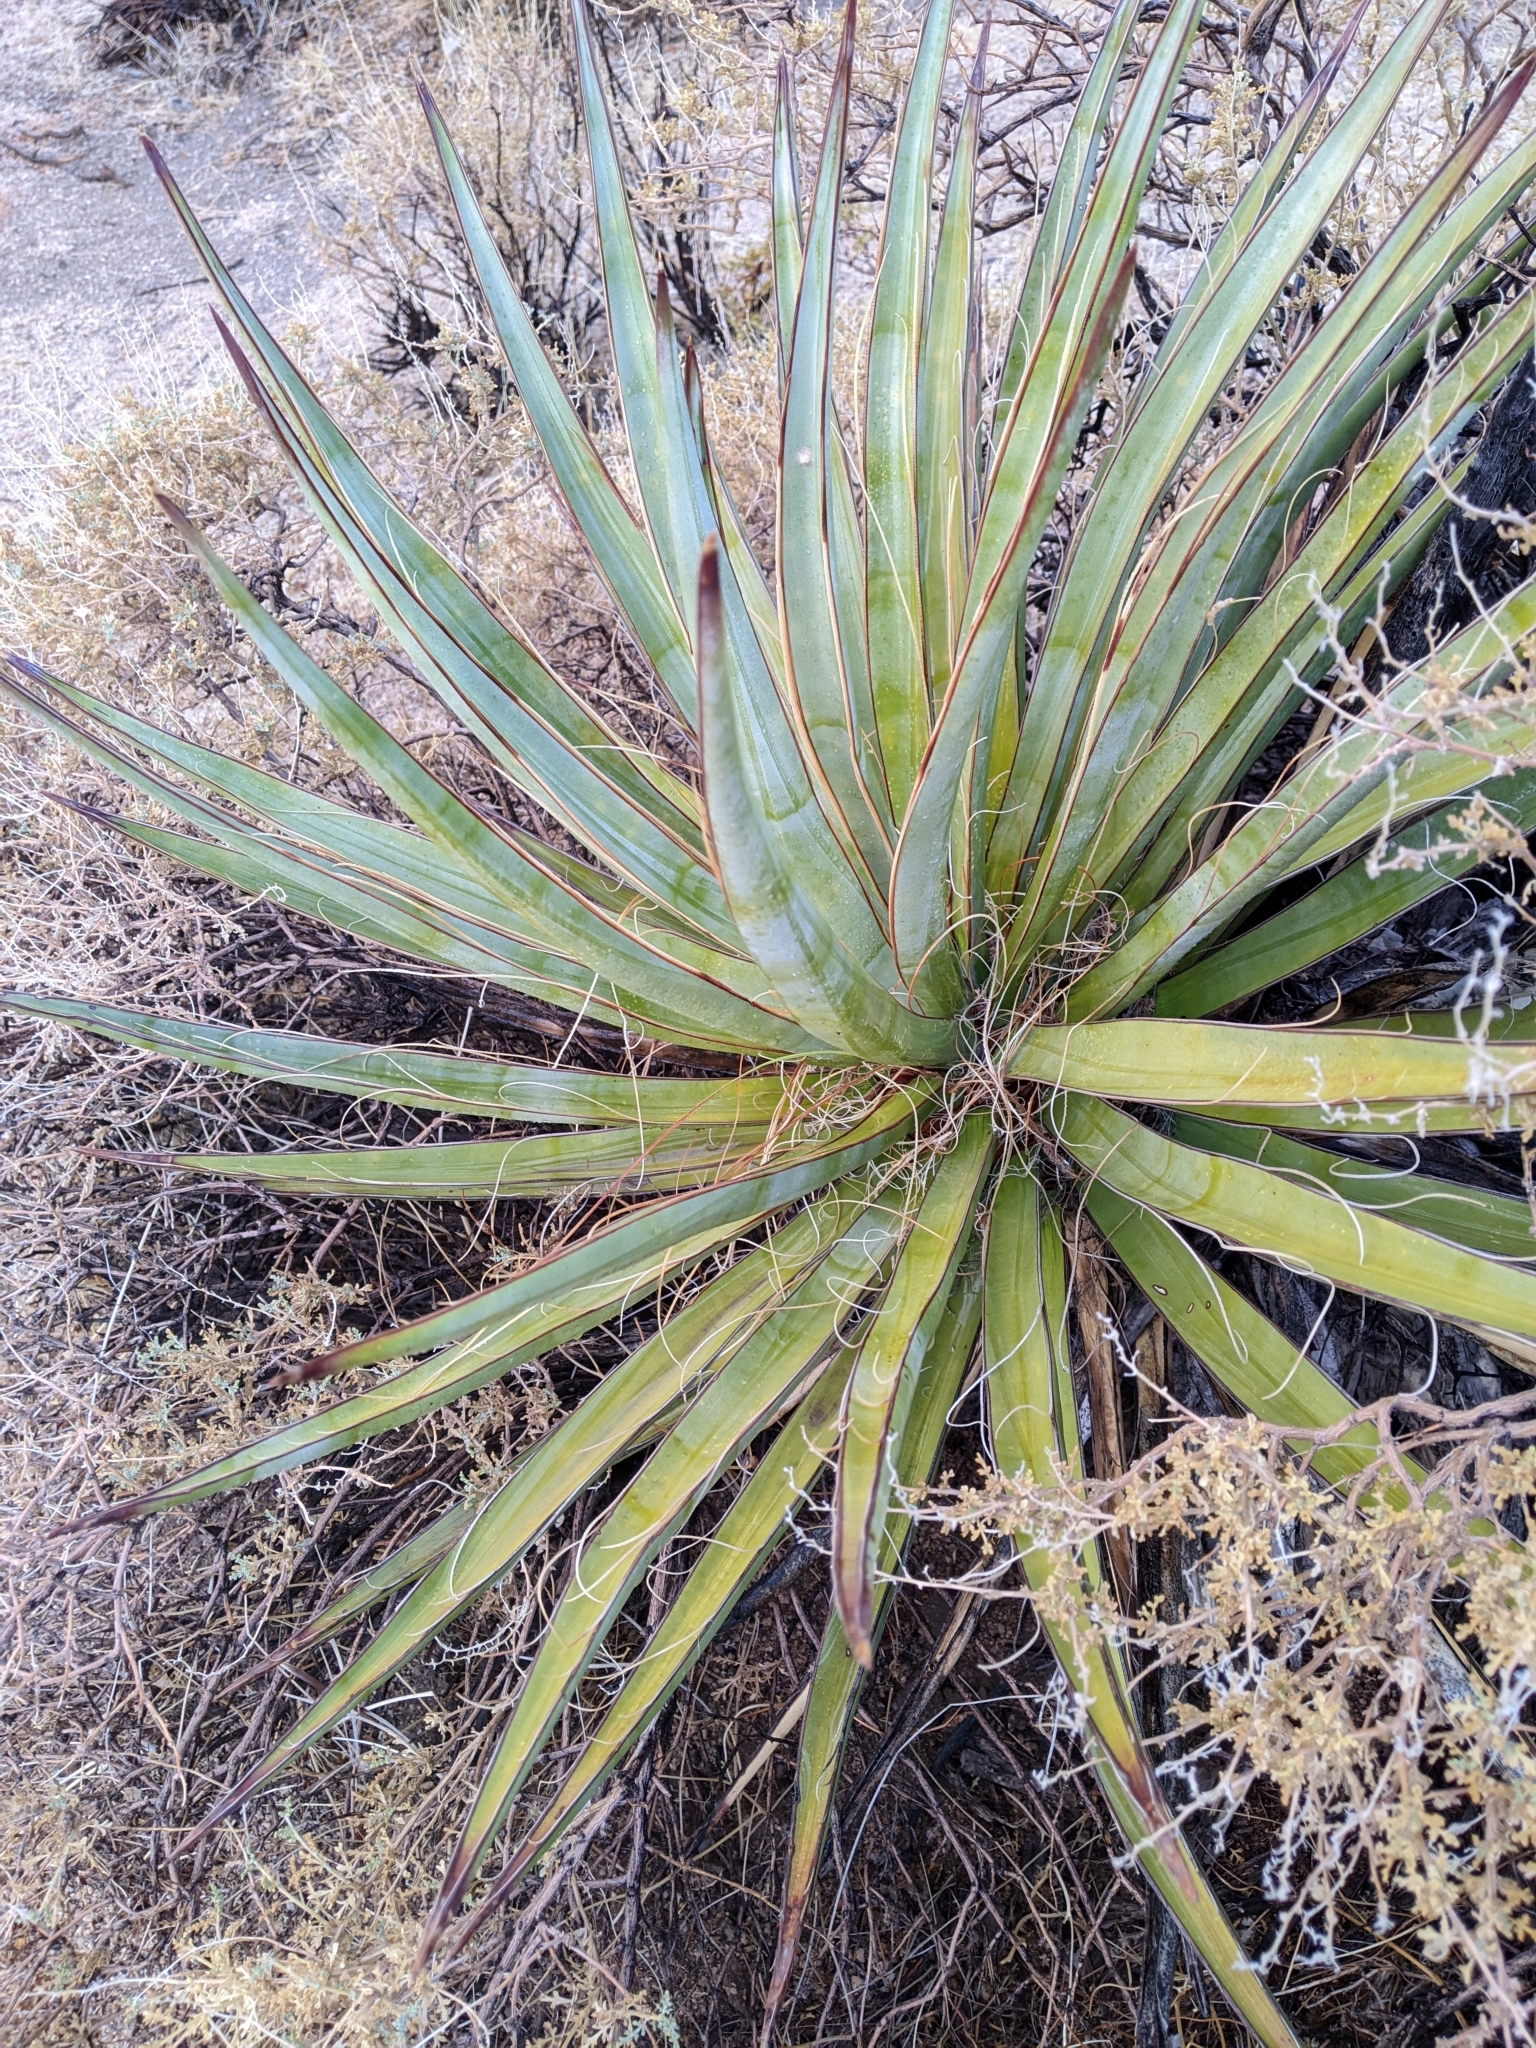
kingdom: Plantae
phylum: Tracheophyta
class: Liliopsida
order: Asparagales
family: Asparagaceae
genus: Yucca
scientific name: Yucca schidigera
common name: Mojave yucca
